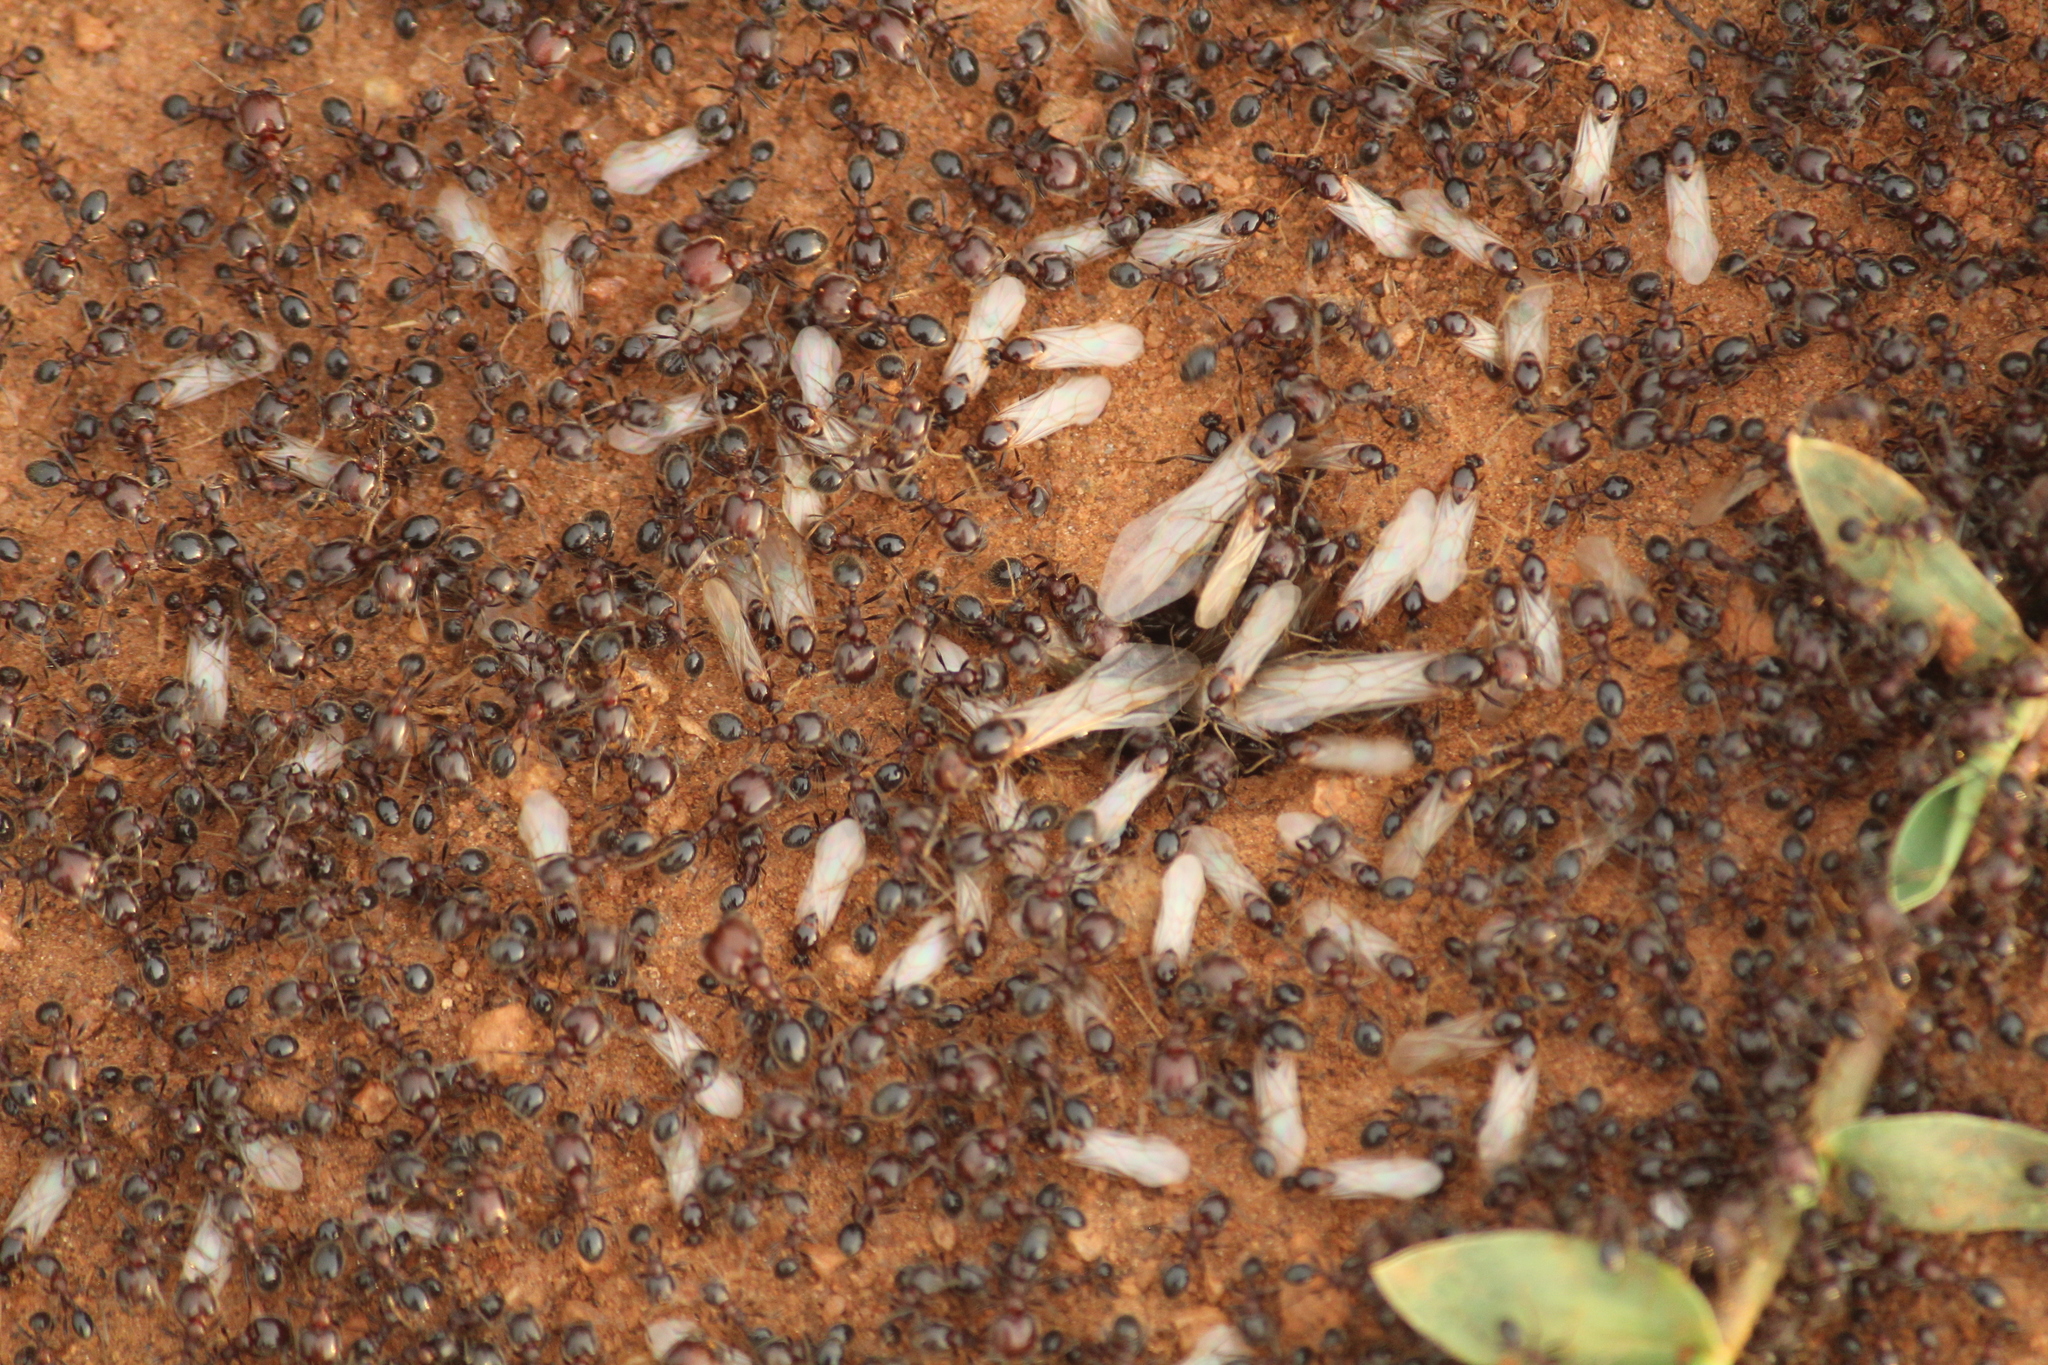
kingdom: Animalia
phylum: Arthropoda
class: Insecta
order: Hymenoptera
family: Formicidae
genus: Trichomyrmex
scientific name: Trichomyrmex
